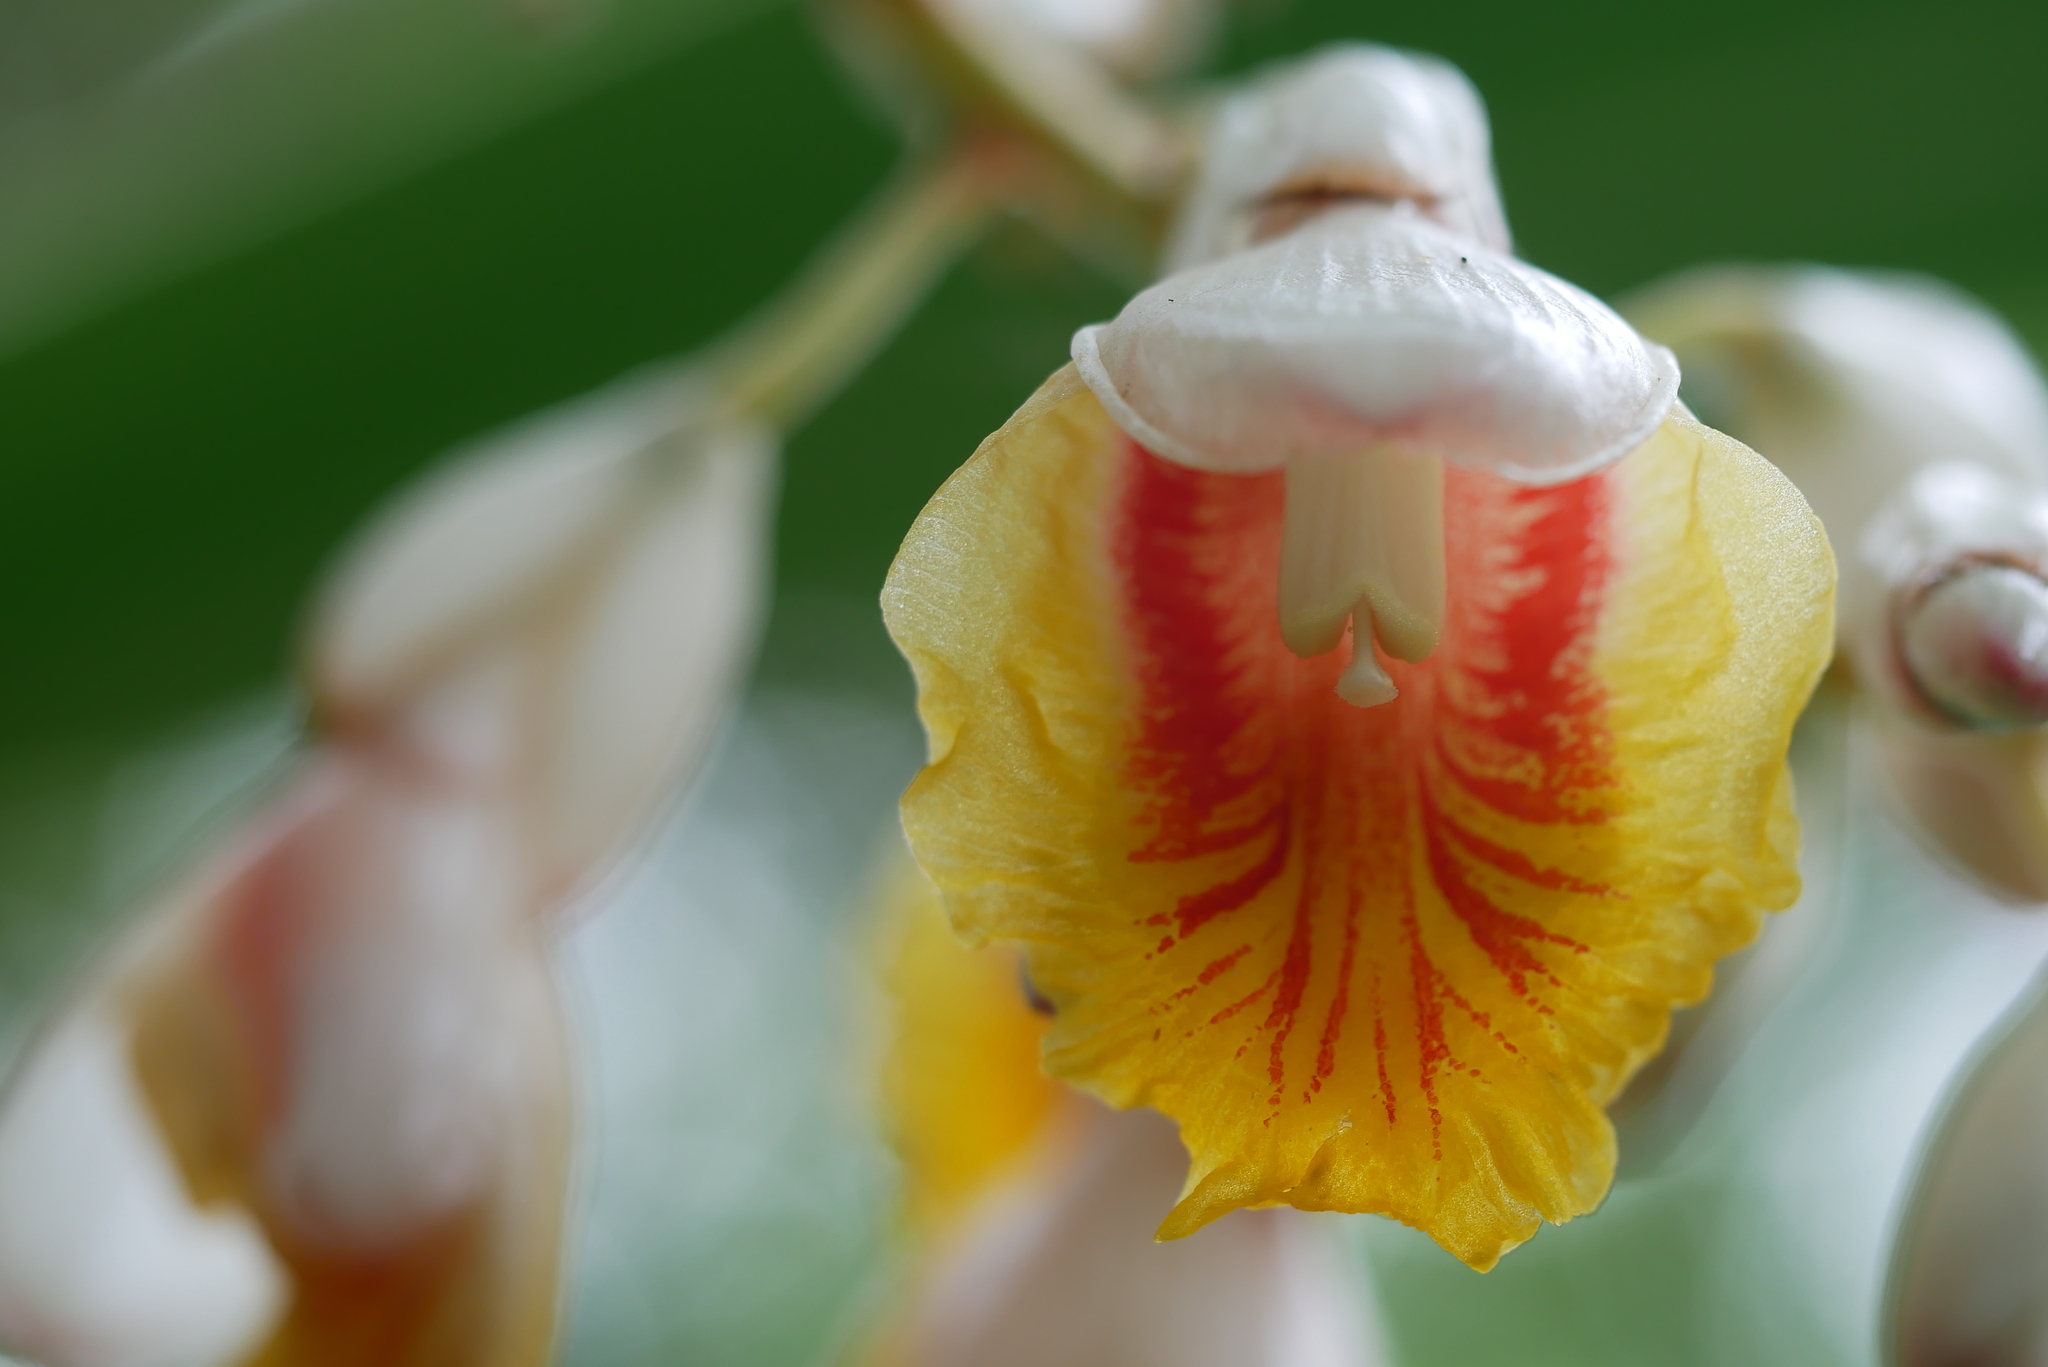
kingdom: Plantae
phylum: Tracheophyta
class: Liliopsida
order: Zingiberales
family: Zingiberaceae
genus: Alpinia
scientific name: Alpinia zerumbet
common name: Shellplant
